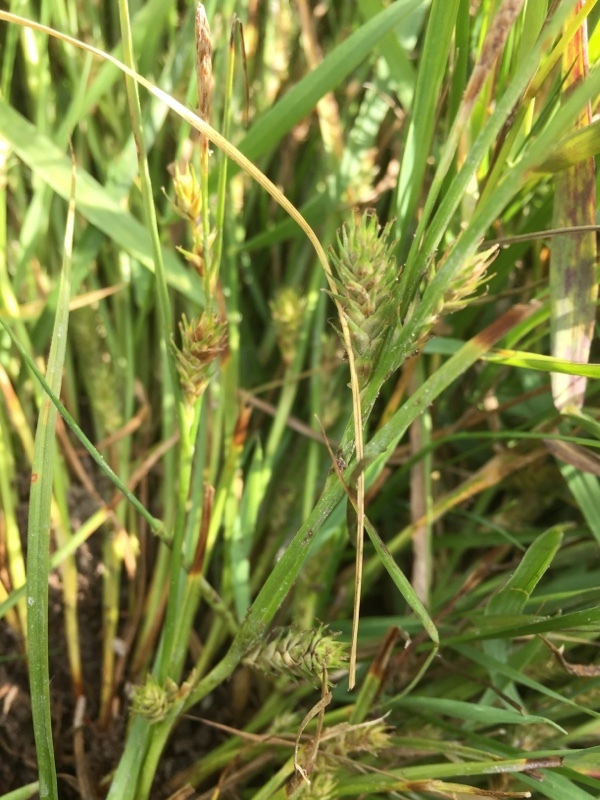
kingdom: Plantae
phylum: Tracheophyta
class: Liliopsida
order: Poales
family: Cyperaceae
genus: Carex
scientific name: Carex secalina
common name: Rye sedge
